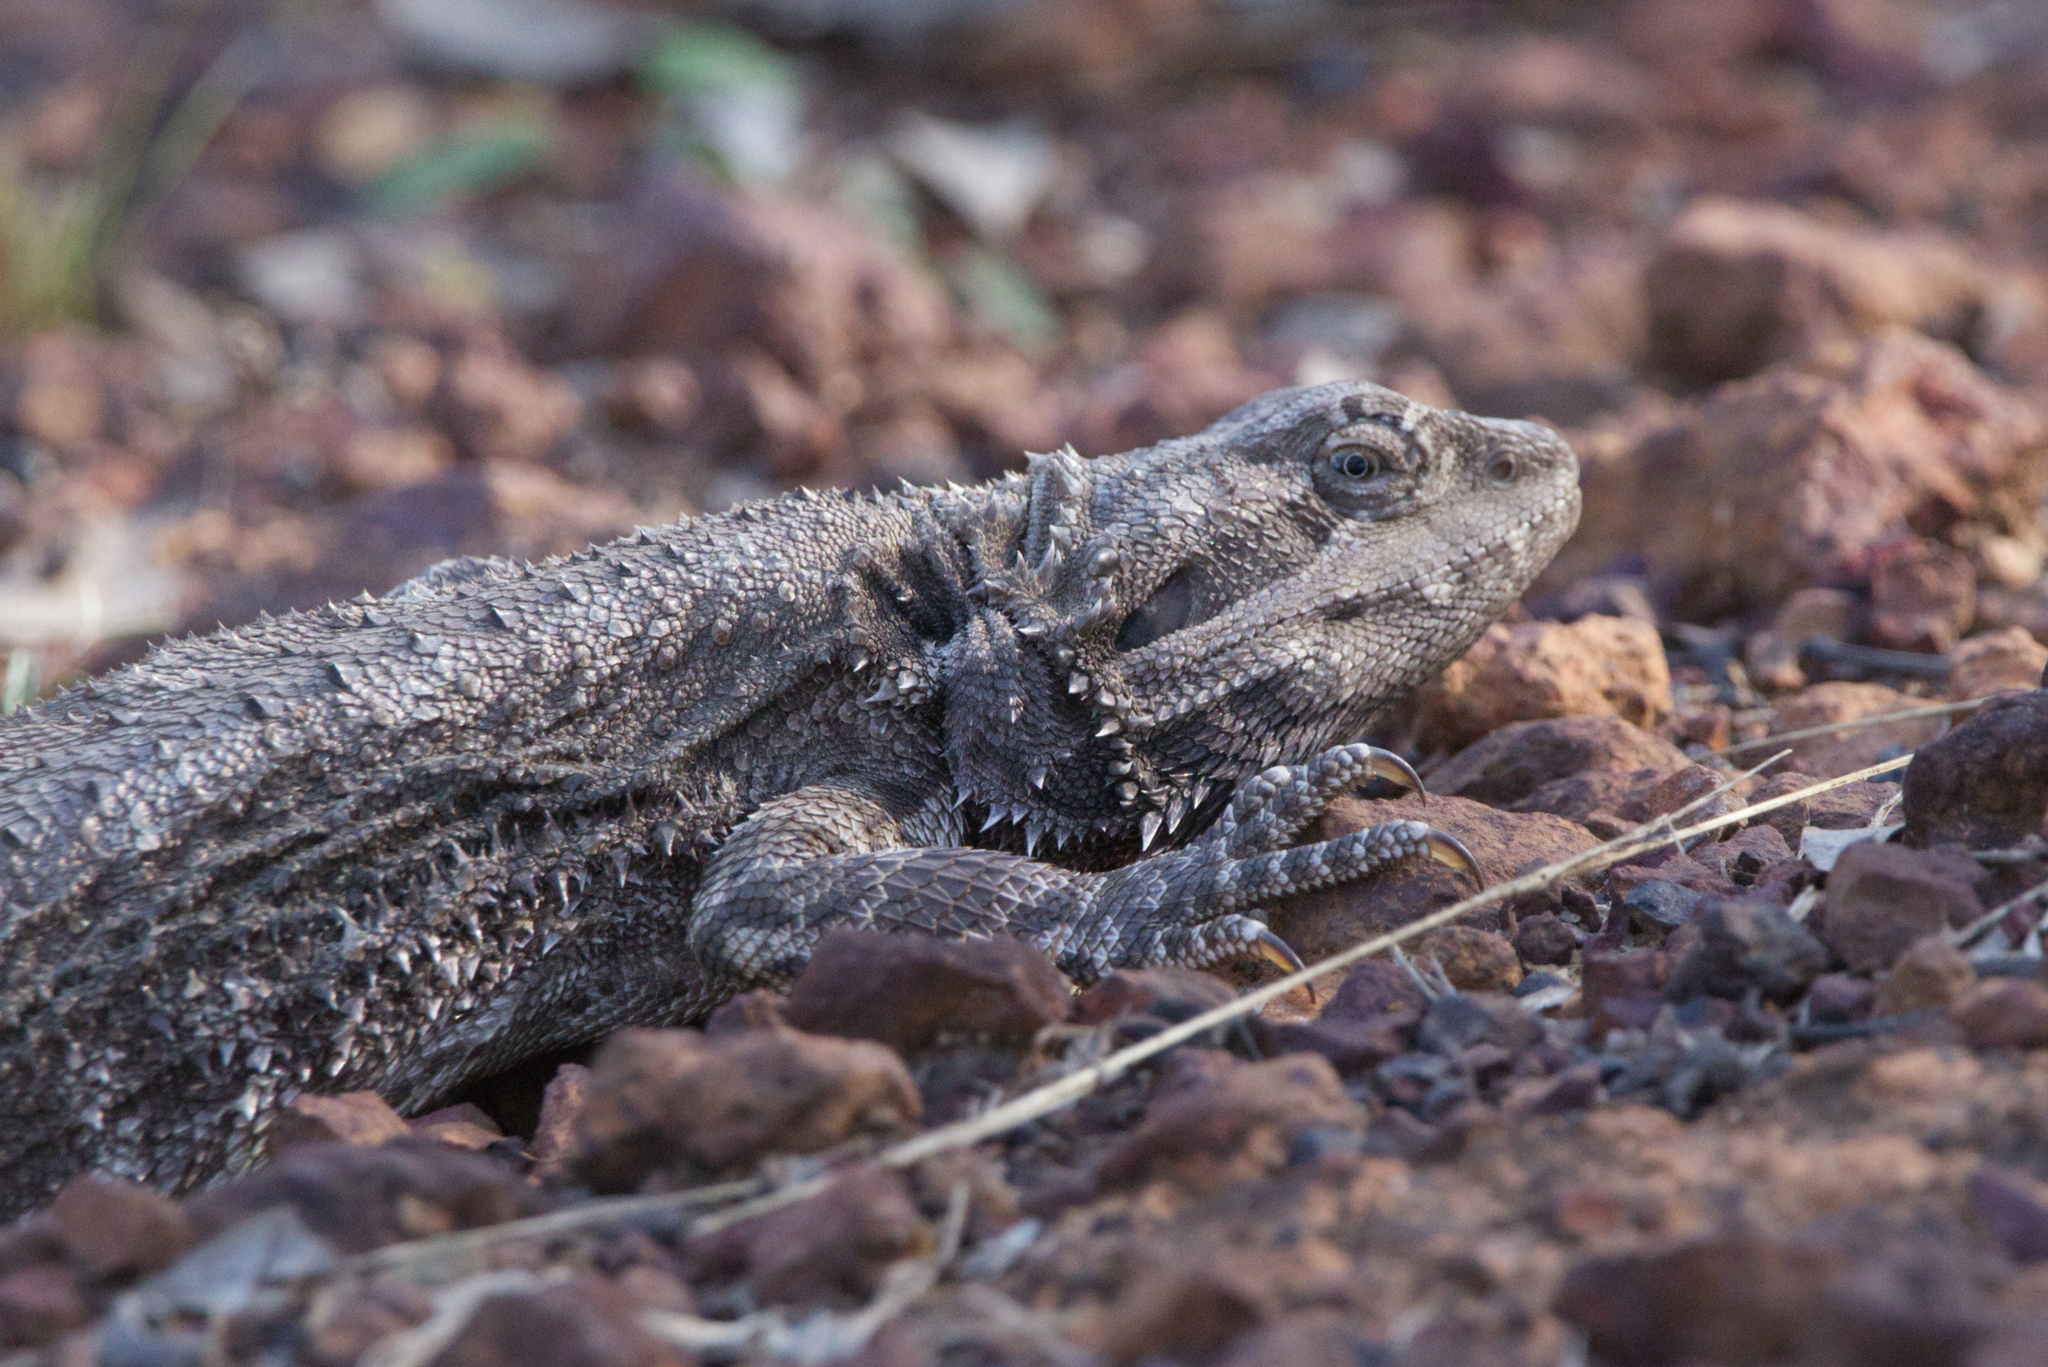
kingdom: Animalia
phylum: Chordata
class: Squamata
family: Agamidae
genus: Pogona
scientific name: Pogona barbata
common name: Bearded dragon
